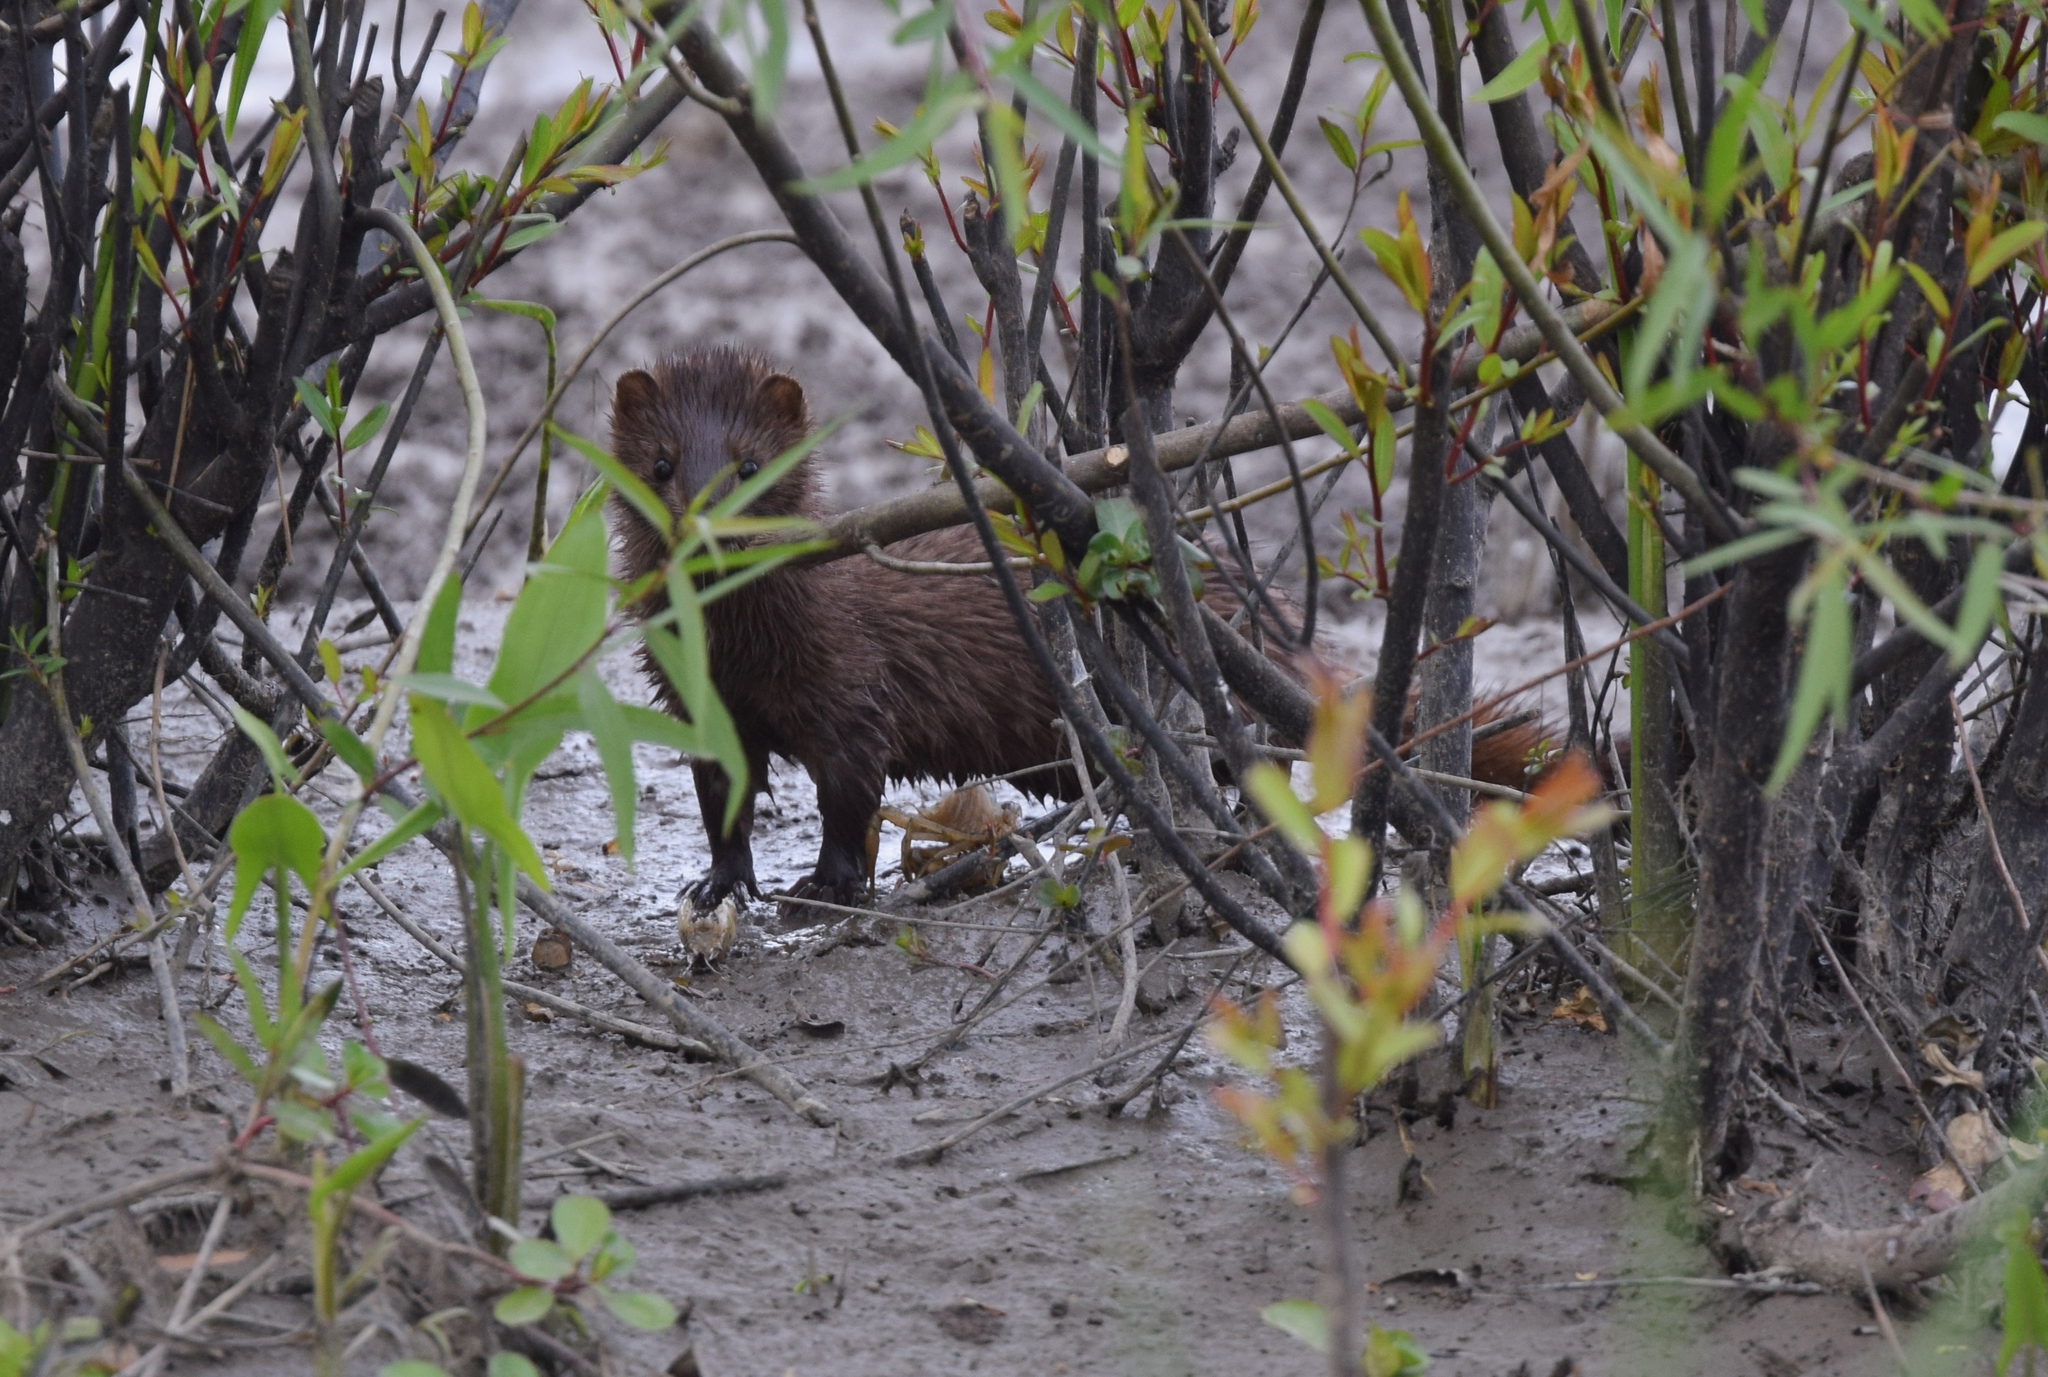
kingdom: Animalia
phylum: Chordata
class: Mammalia
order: Carnivora
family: Mustelidae
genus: Mustela
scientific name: Mustela
